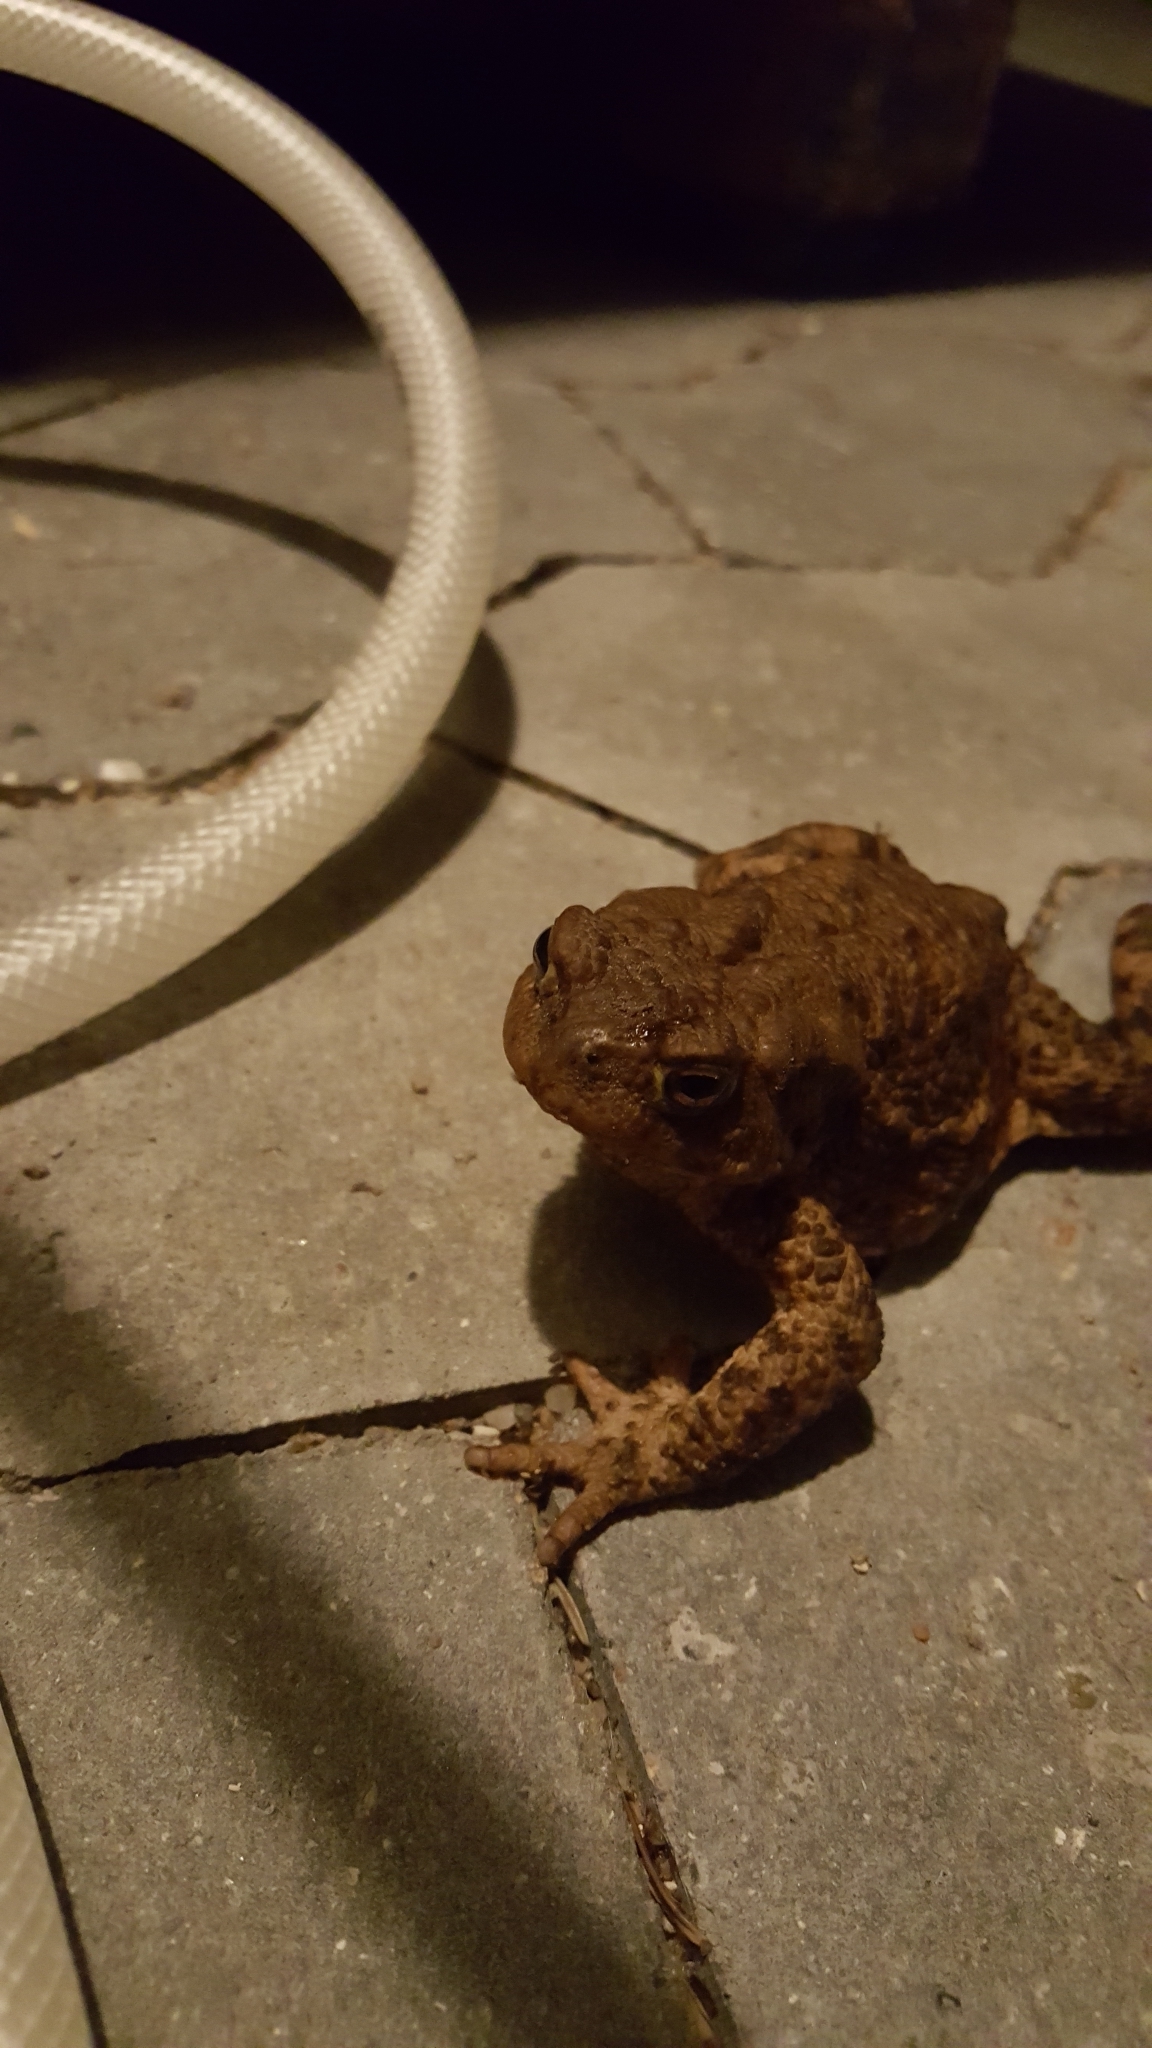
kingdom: Animalia
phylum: Chordata
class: Amphibia
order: Anura
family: Bufonidae
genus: Bufo
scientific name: Bufo bufo
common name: Common toad
